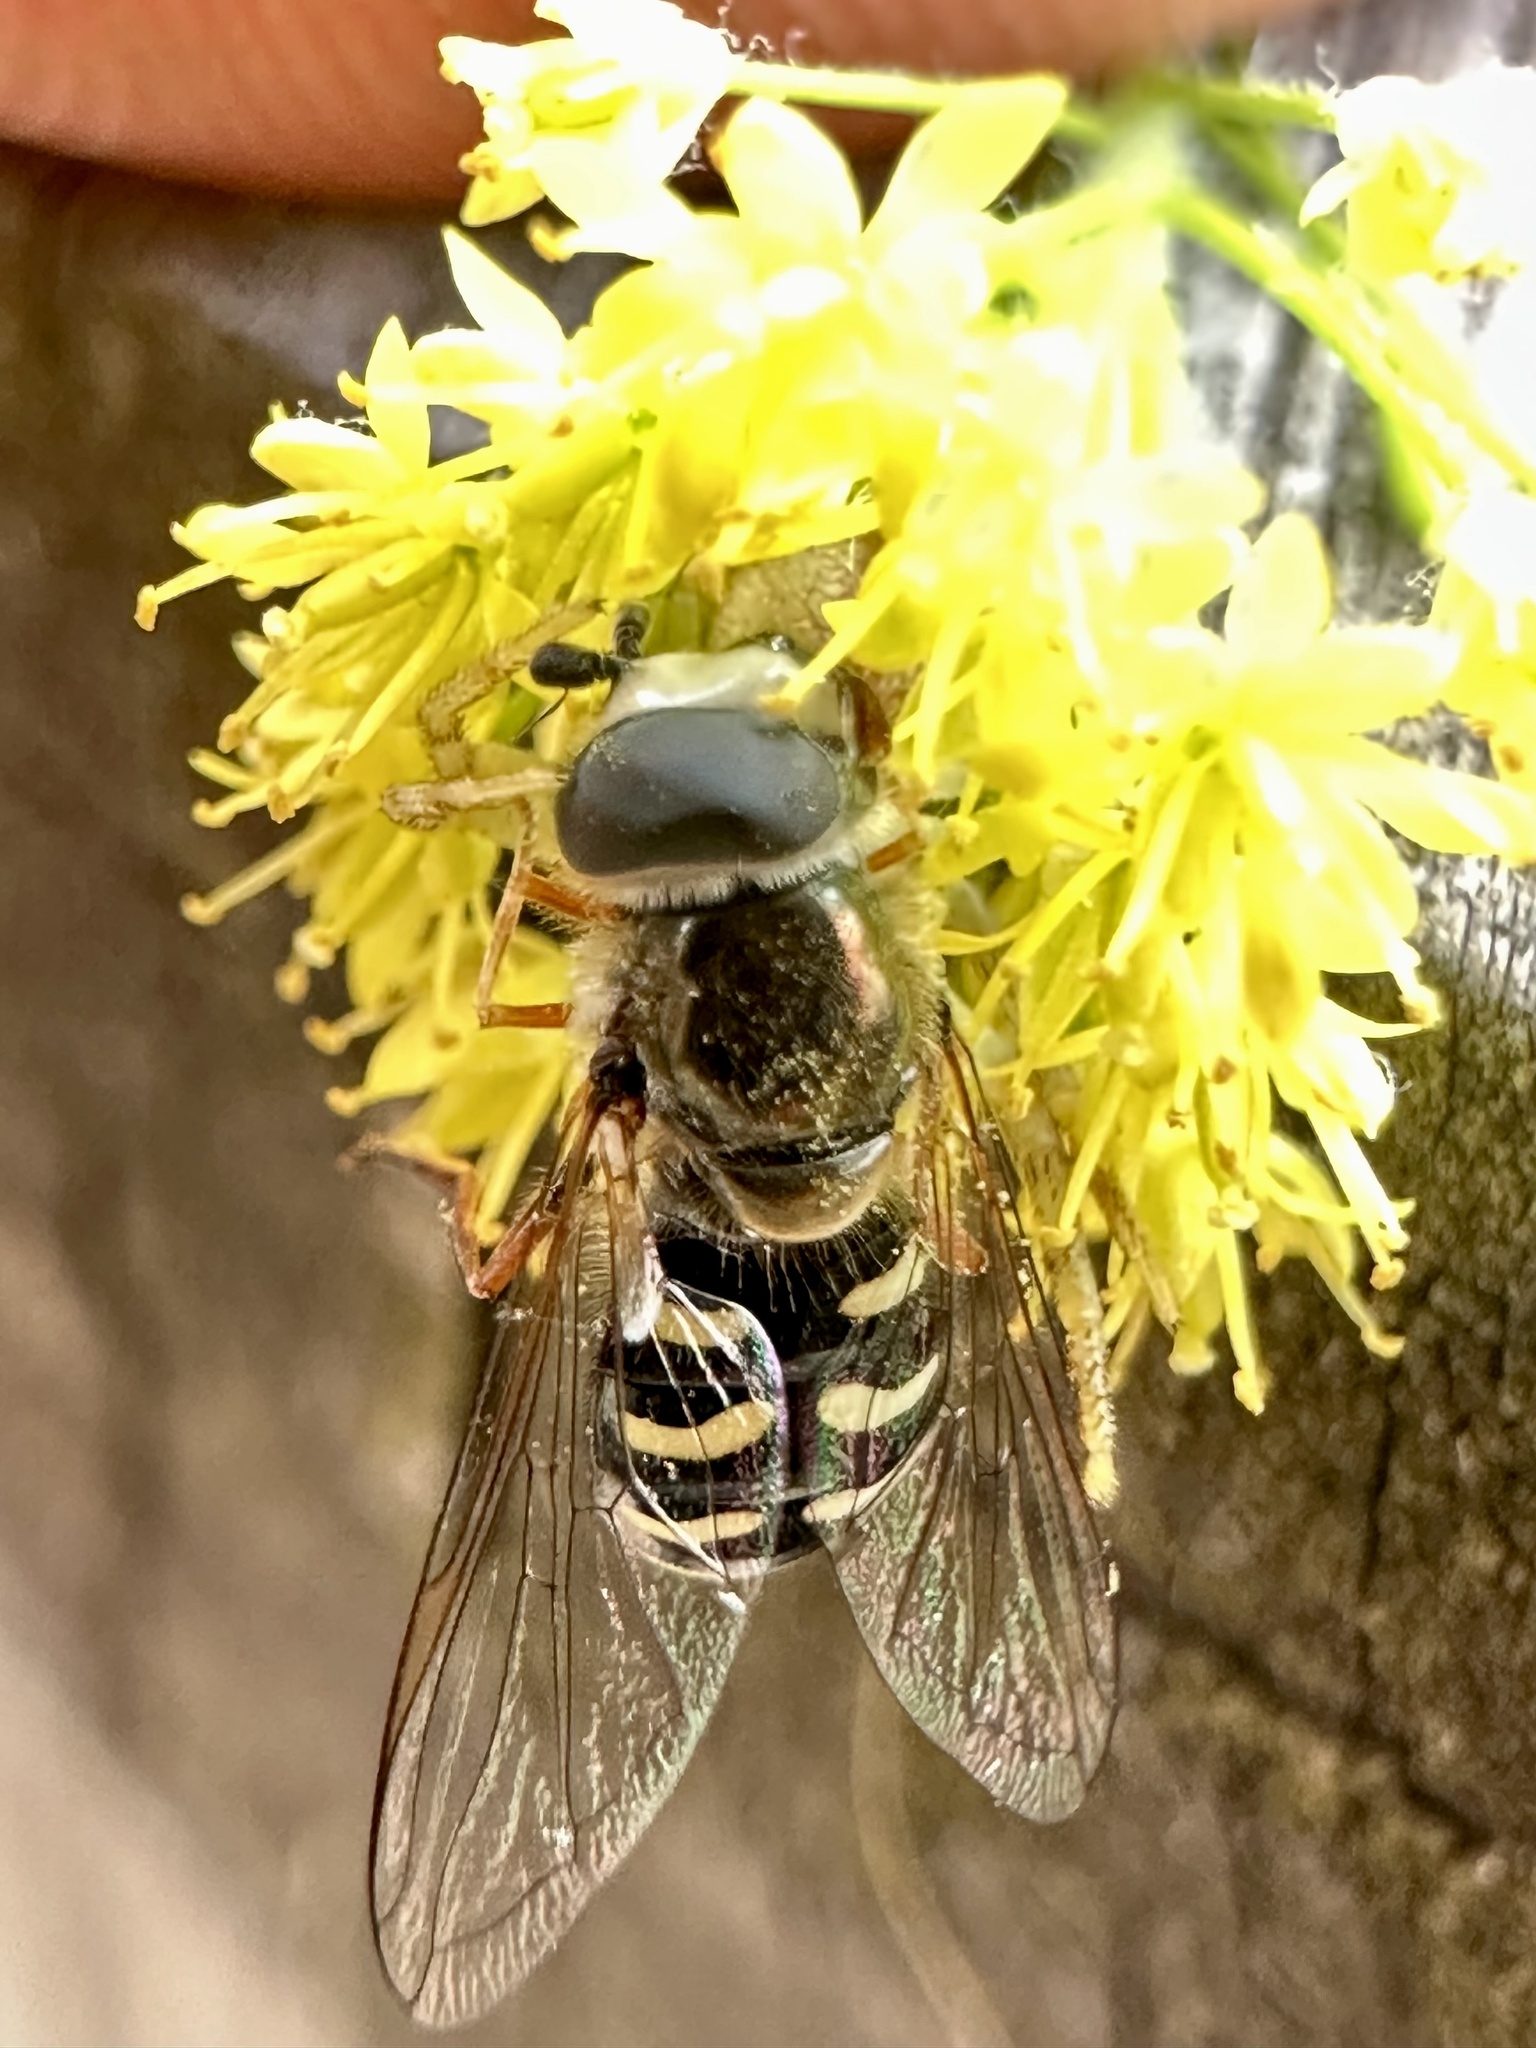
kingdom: Animalia
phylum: Arthropoda
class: Insecta
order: Diptera
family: Syrphidae
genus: Eupeodes
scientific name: Eupeodes volucris
